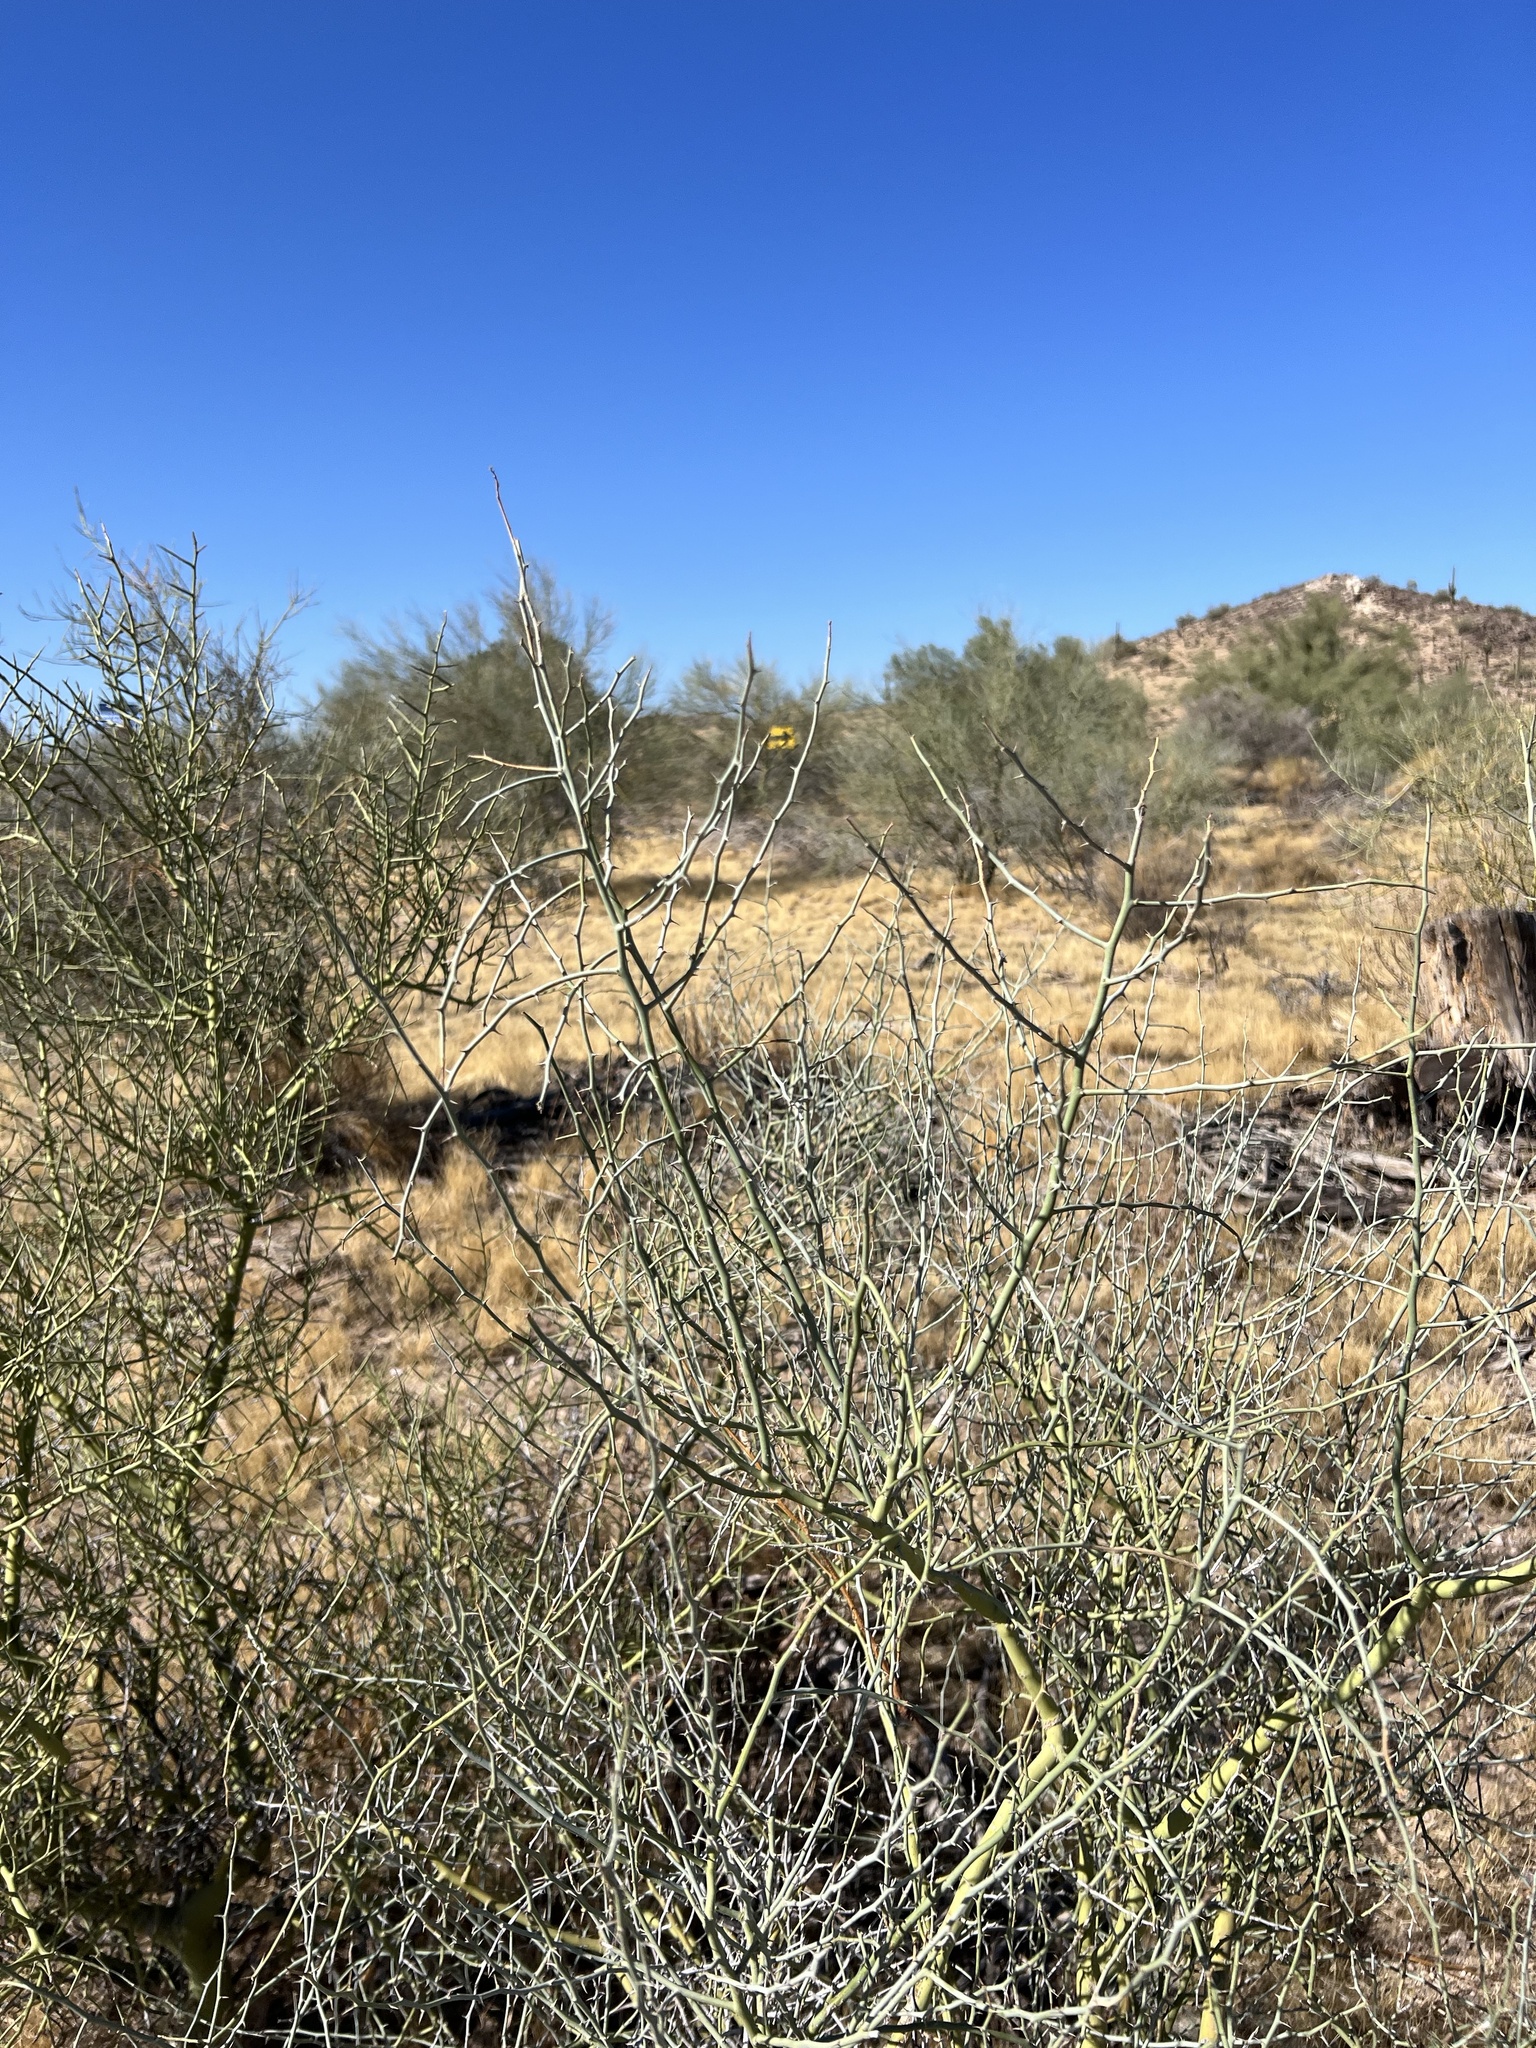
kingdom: Plantae
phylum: Tracheophyta
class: Magnoliopsida
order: Fabales
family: Fabaceae
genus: Parkinsonia
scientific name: Parkinsonia florida
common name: Blue paloverde
